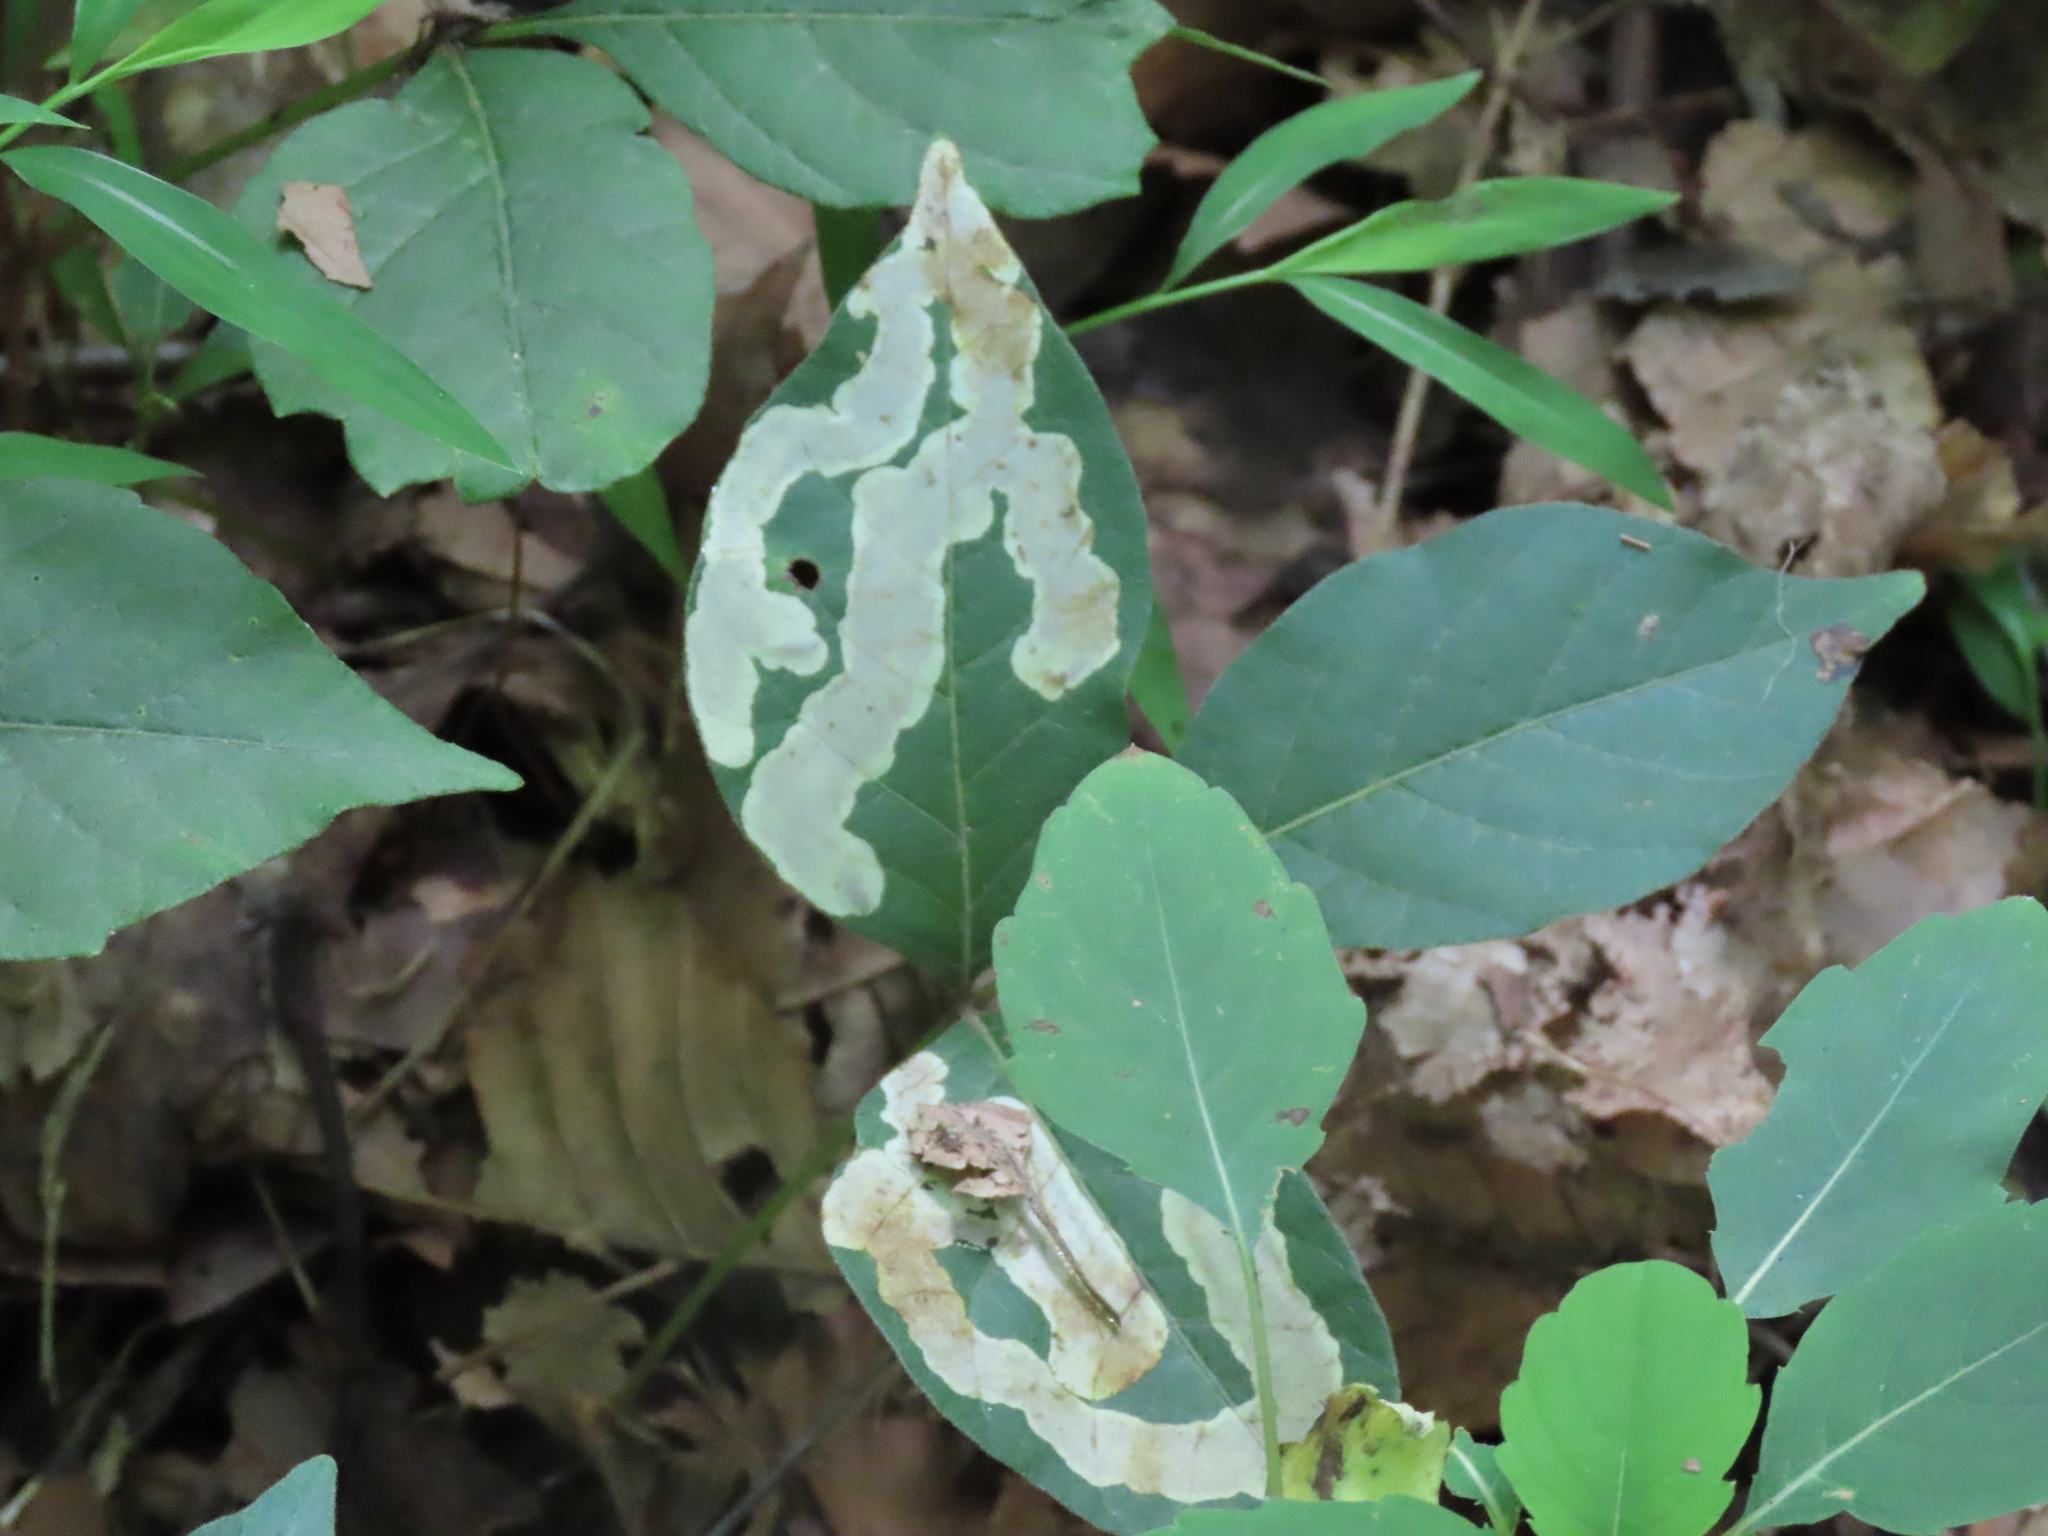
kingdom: Animalia
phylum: Arthropoda
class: Insecta
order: Lepidoptera
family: Gracillariidae
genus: Cameraria
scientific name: Cameraria guttifinitella
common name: Poison ivy leaf-miner moth
